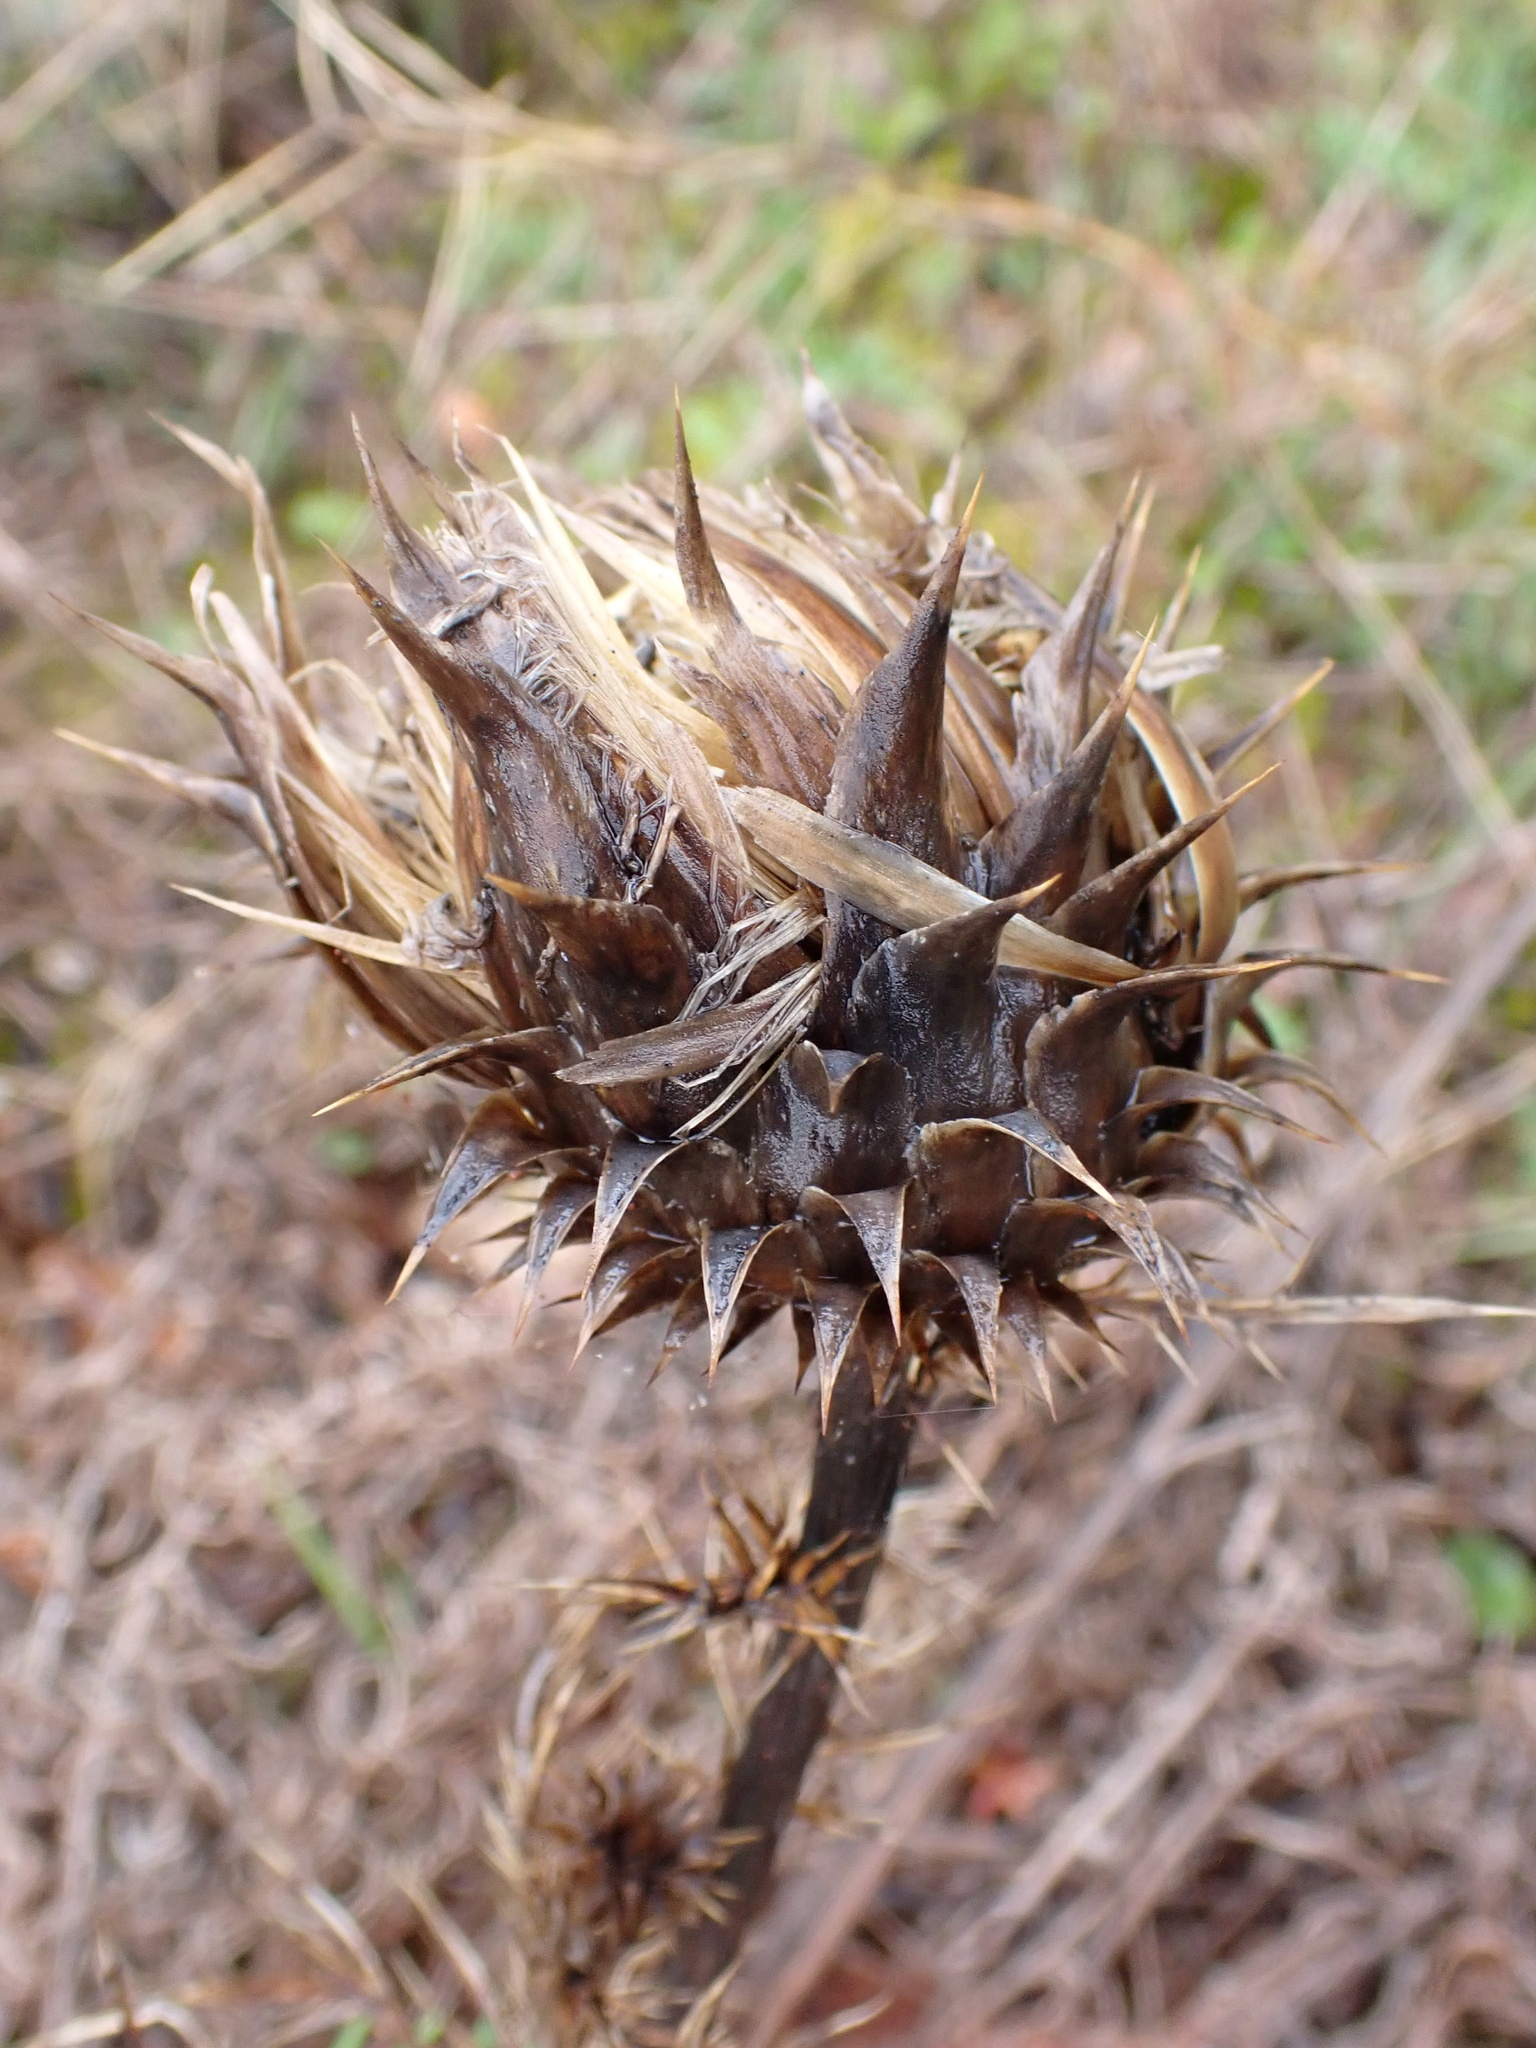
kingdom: Plantae
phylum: Tracheophyta
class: Magnoliopsida
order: Asterales
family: Asteraceae
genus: Cynara
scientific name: Cynara humilis
